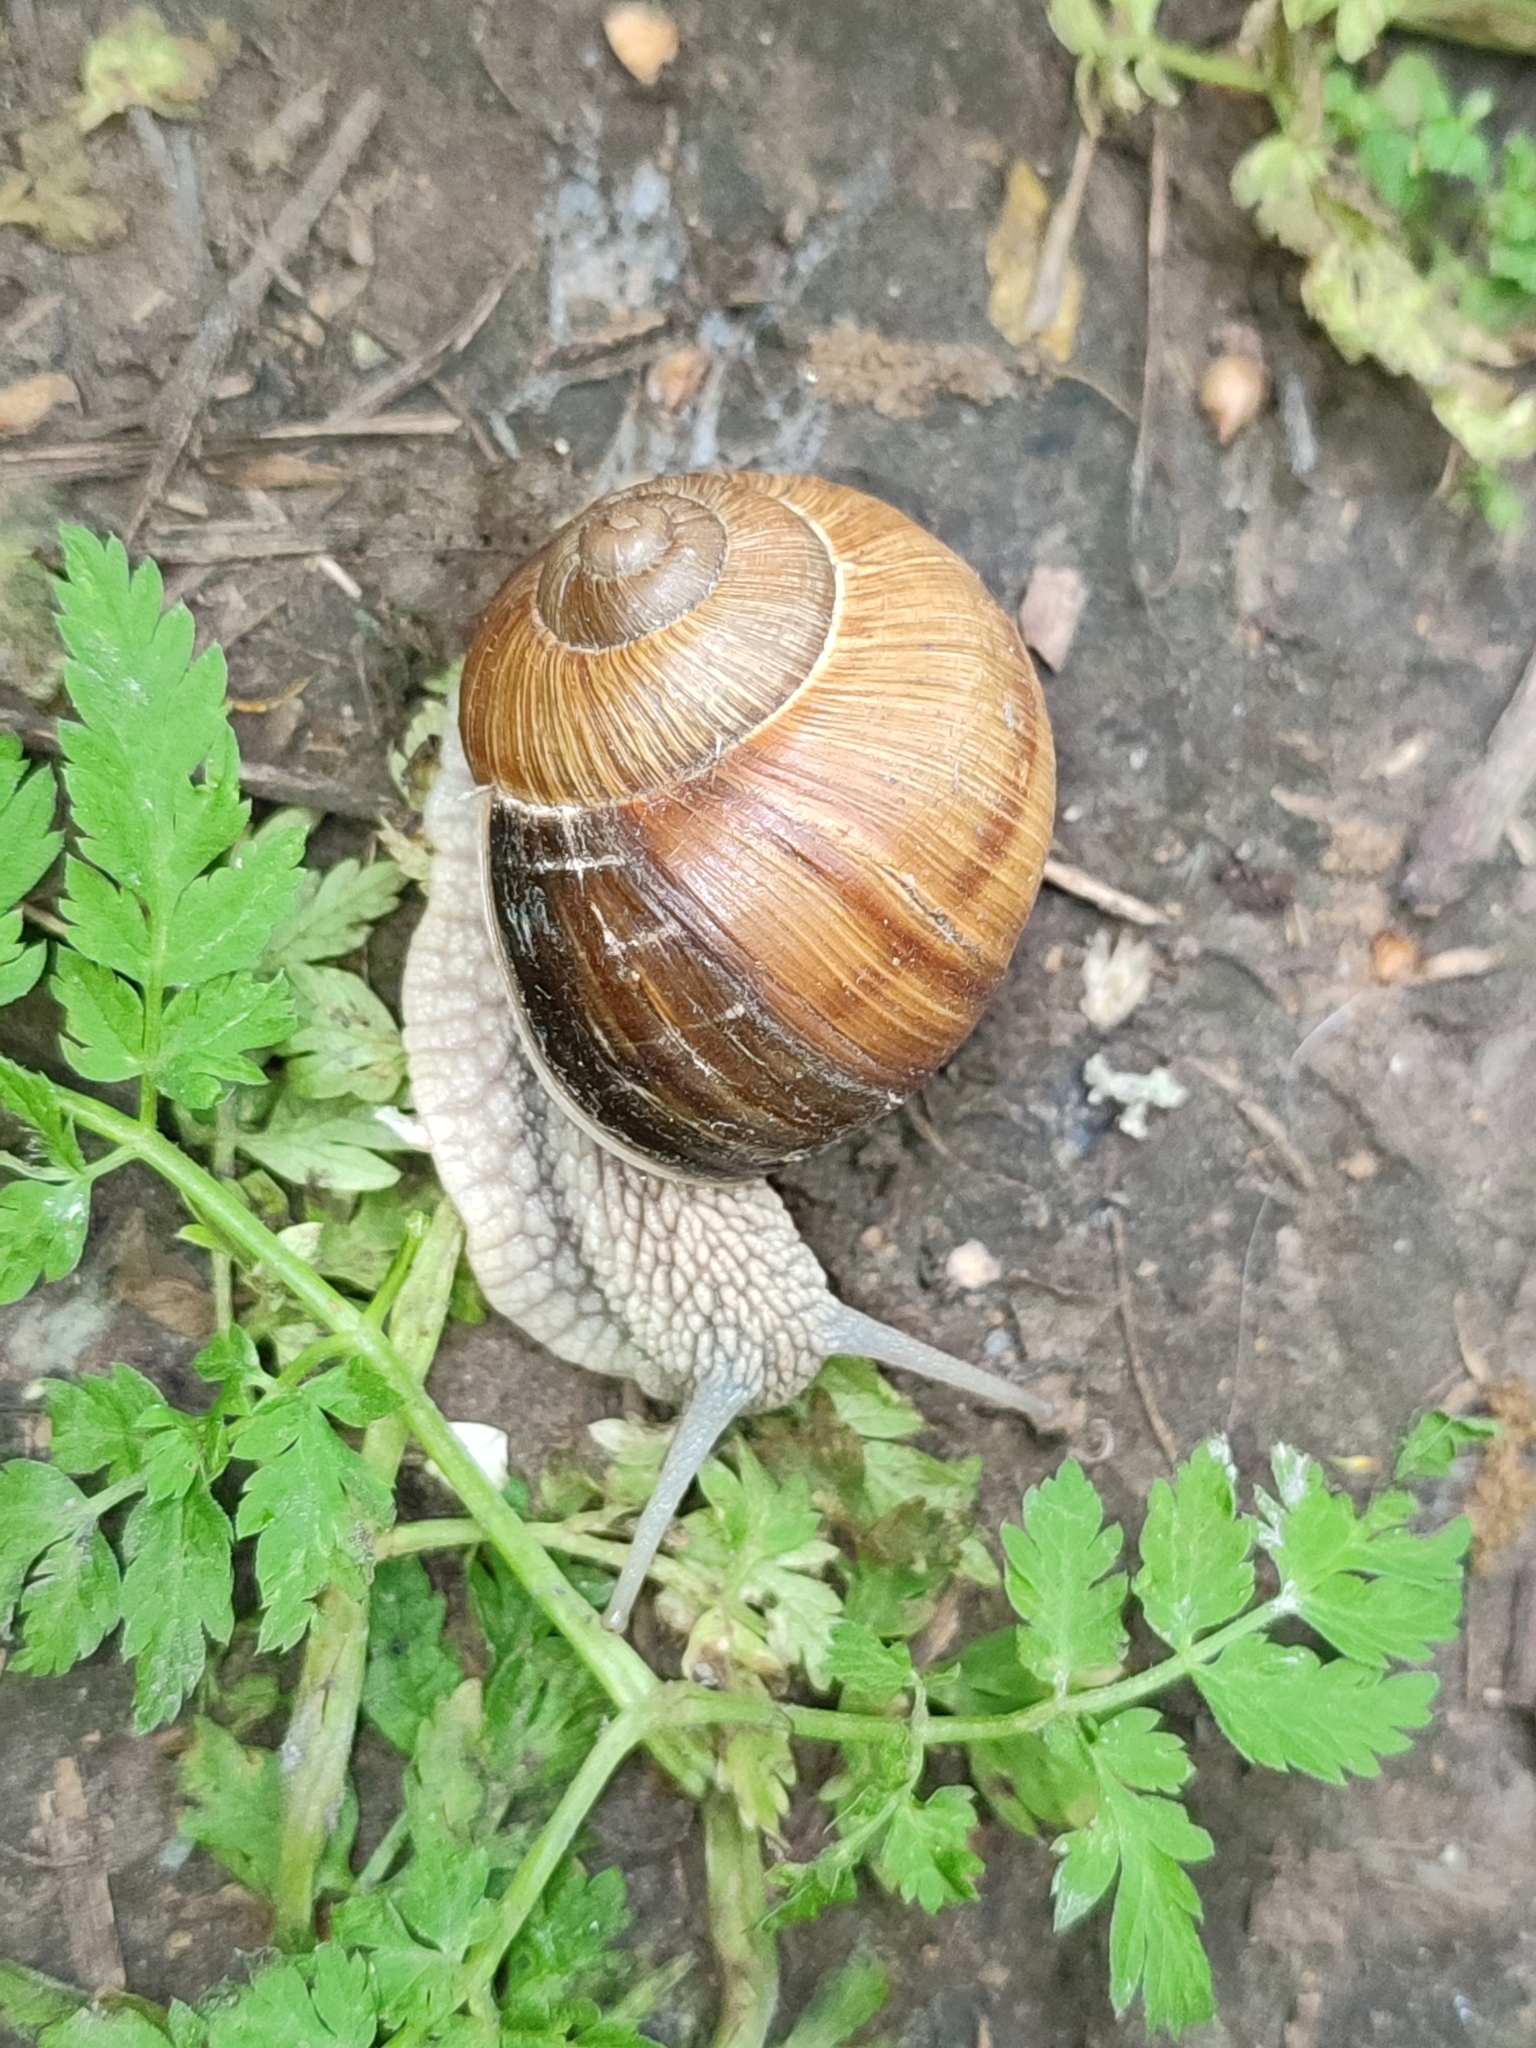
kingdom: Animalia
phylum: Mollusca
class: Gastropoda
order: Stylommatophora
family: Helicidae
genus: Helix
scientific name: Helix pomatia
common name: Roman snail
